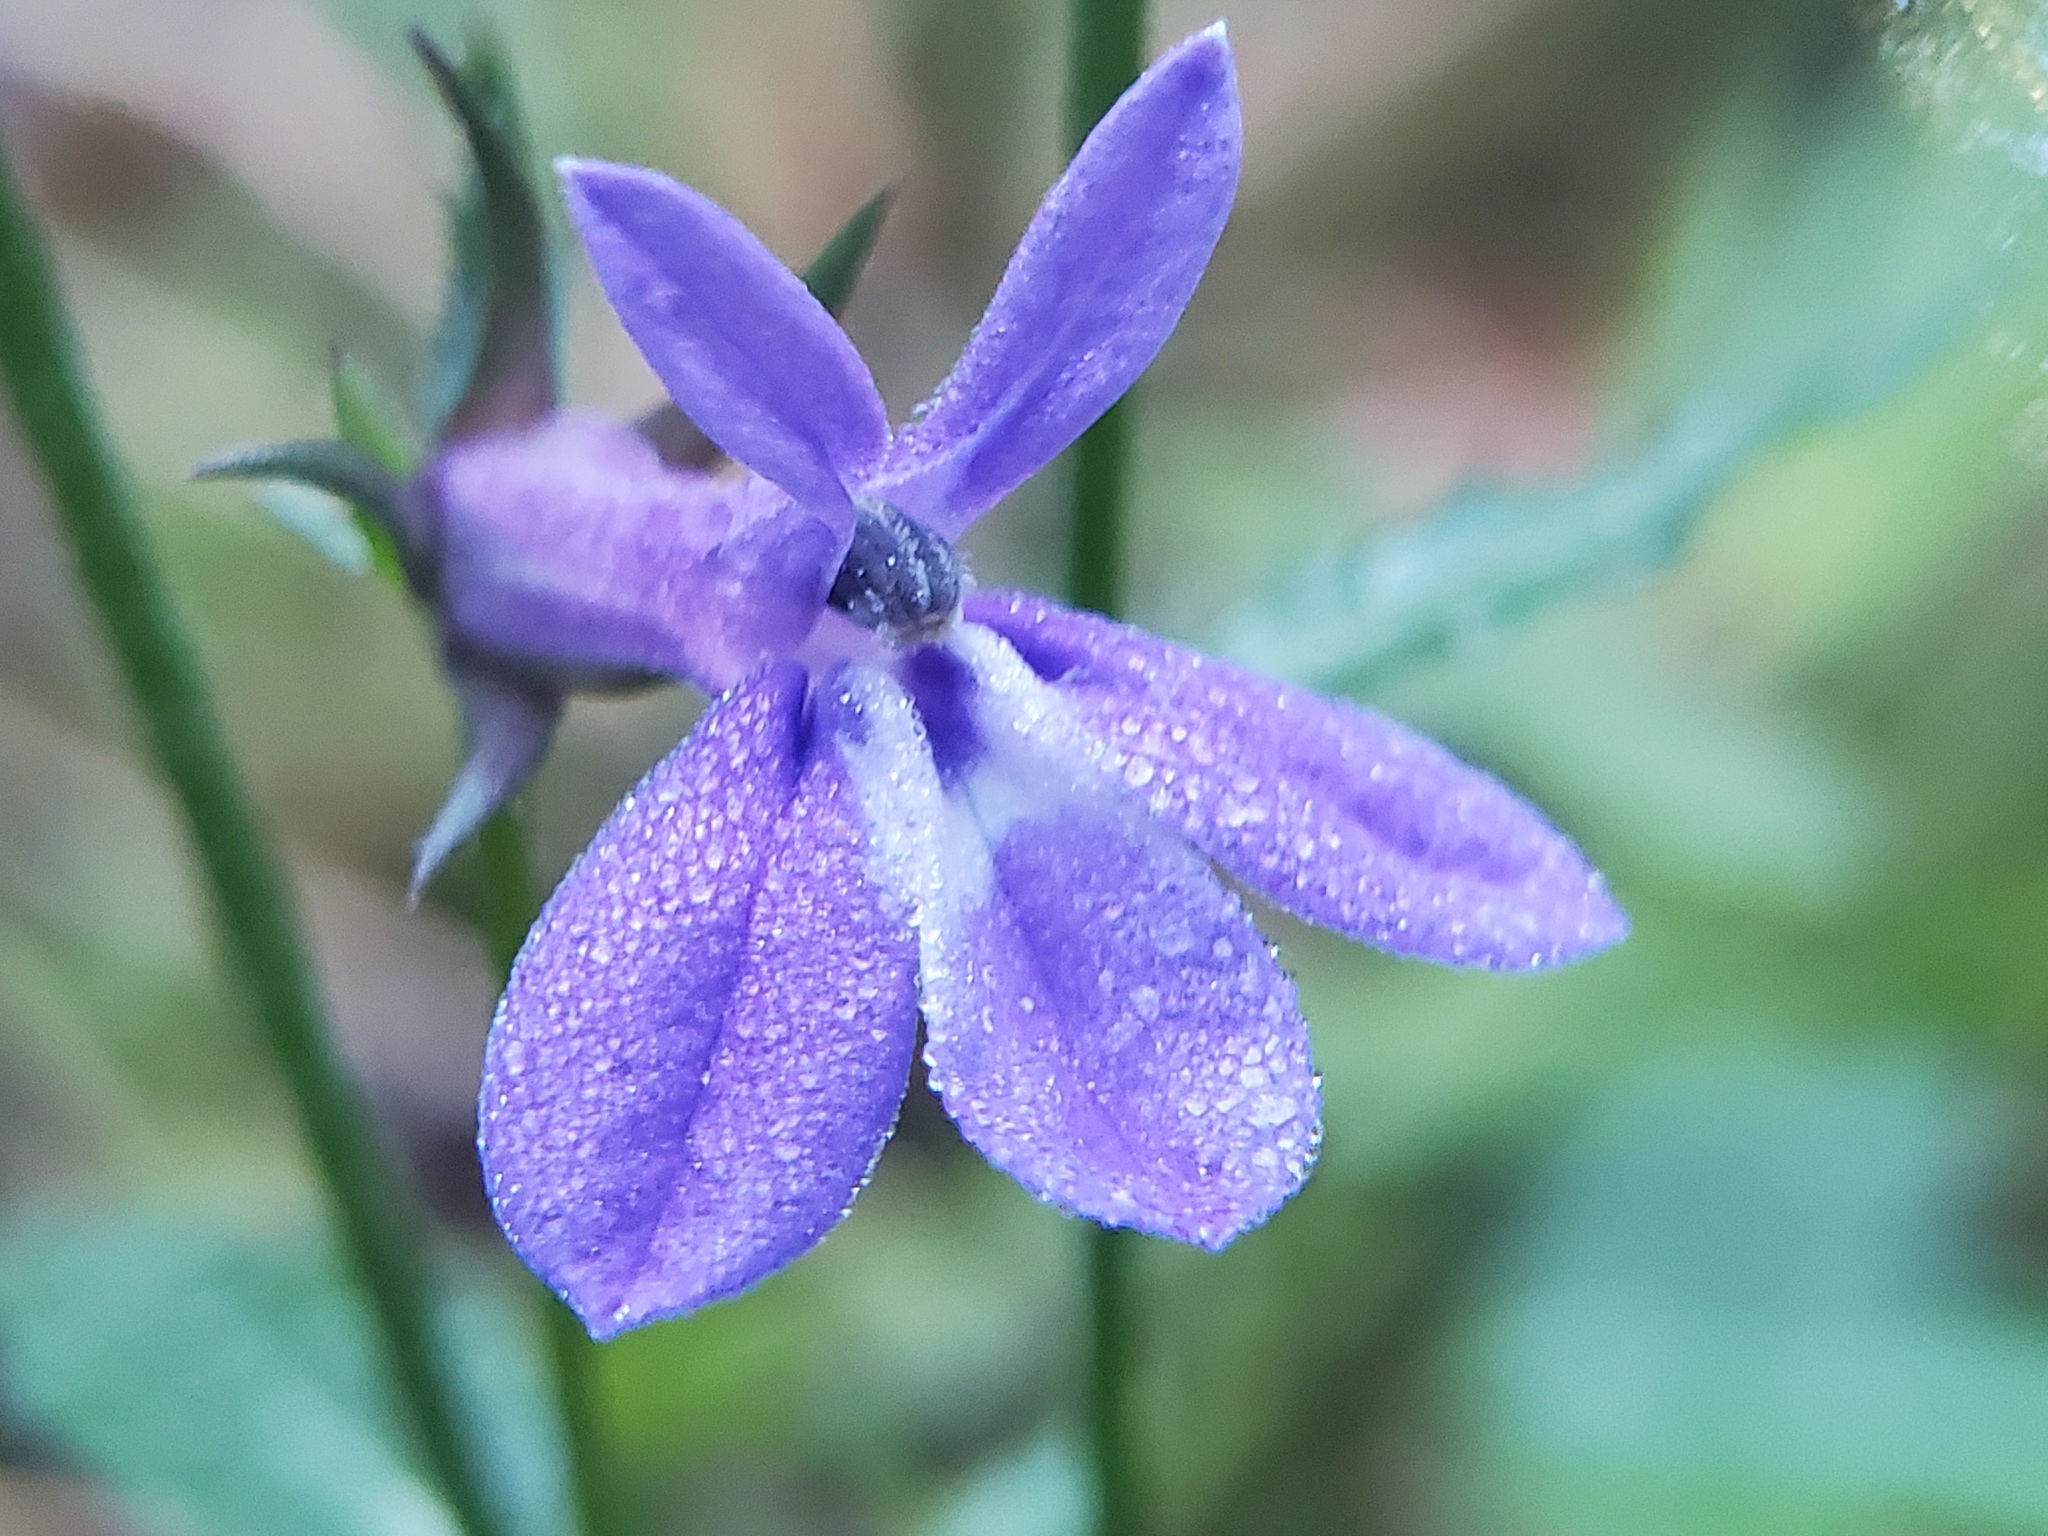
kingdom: Plantae
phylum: Tracheophyta
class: Magnoliopsida
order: Asterales
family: Campanulaceae
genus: Lobelia
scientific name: Lobelia puberula
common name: Purple dewdrop
